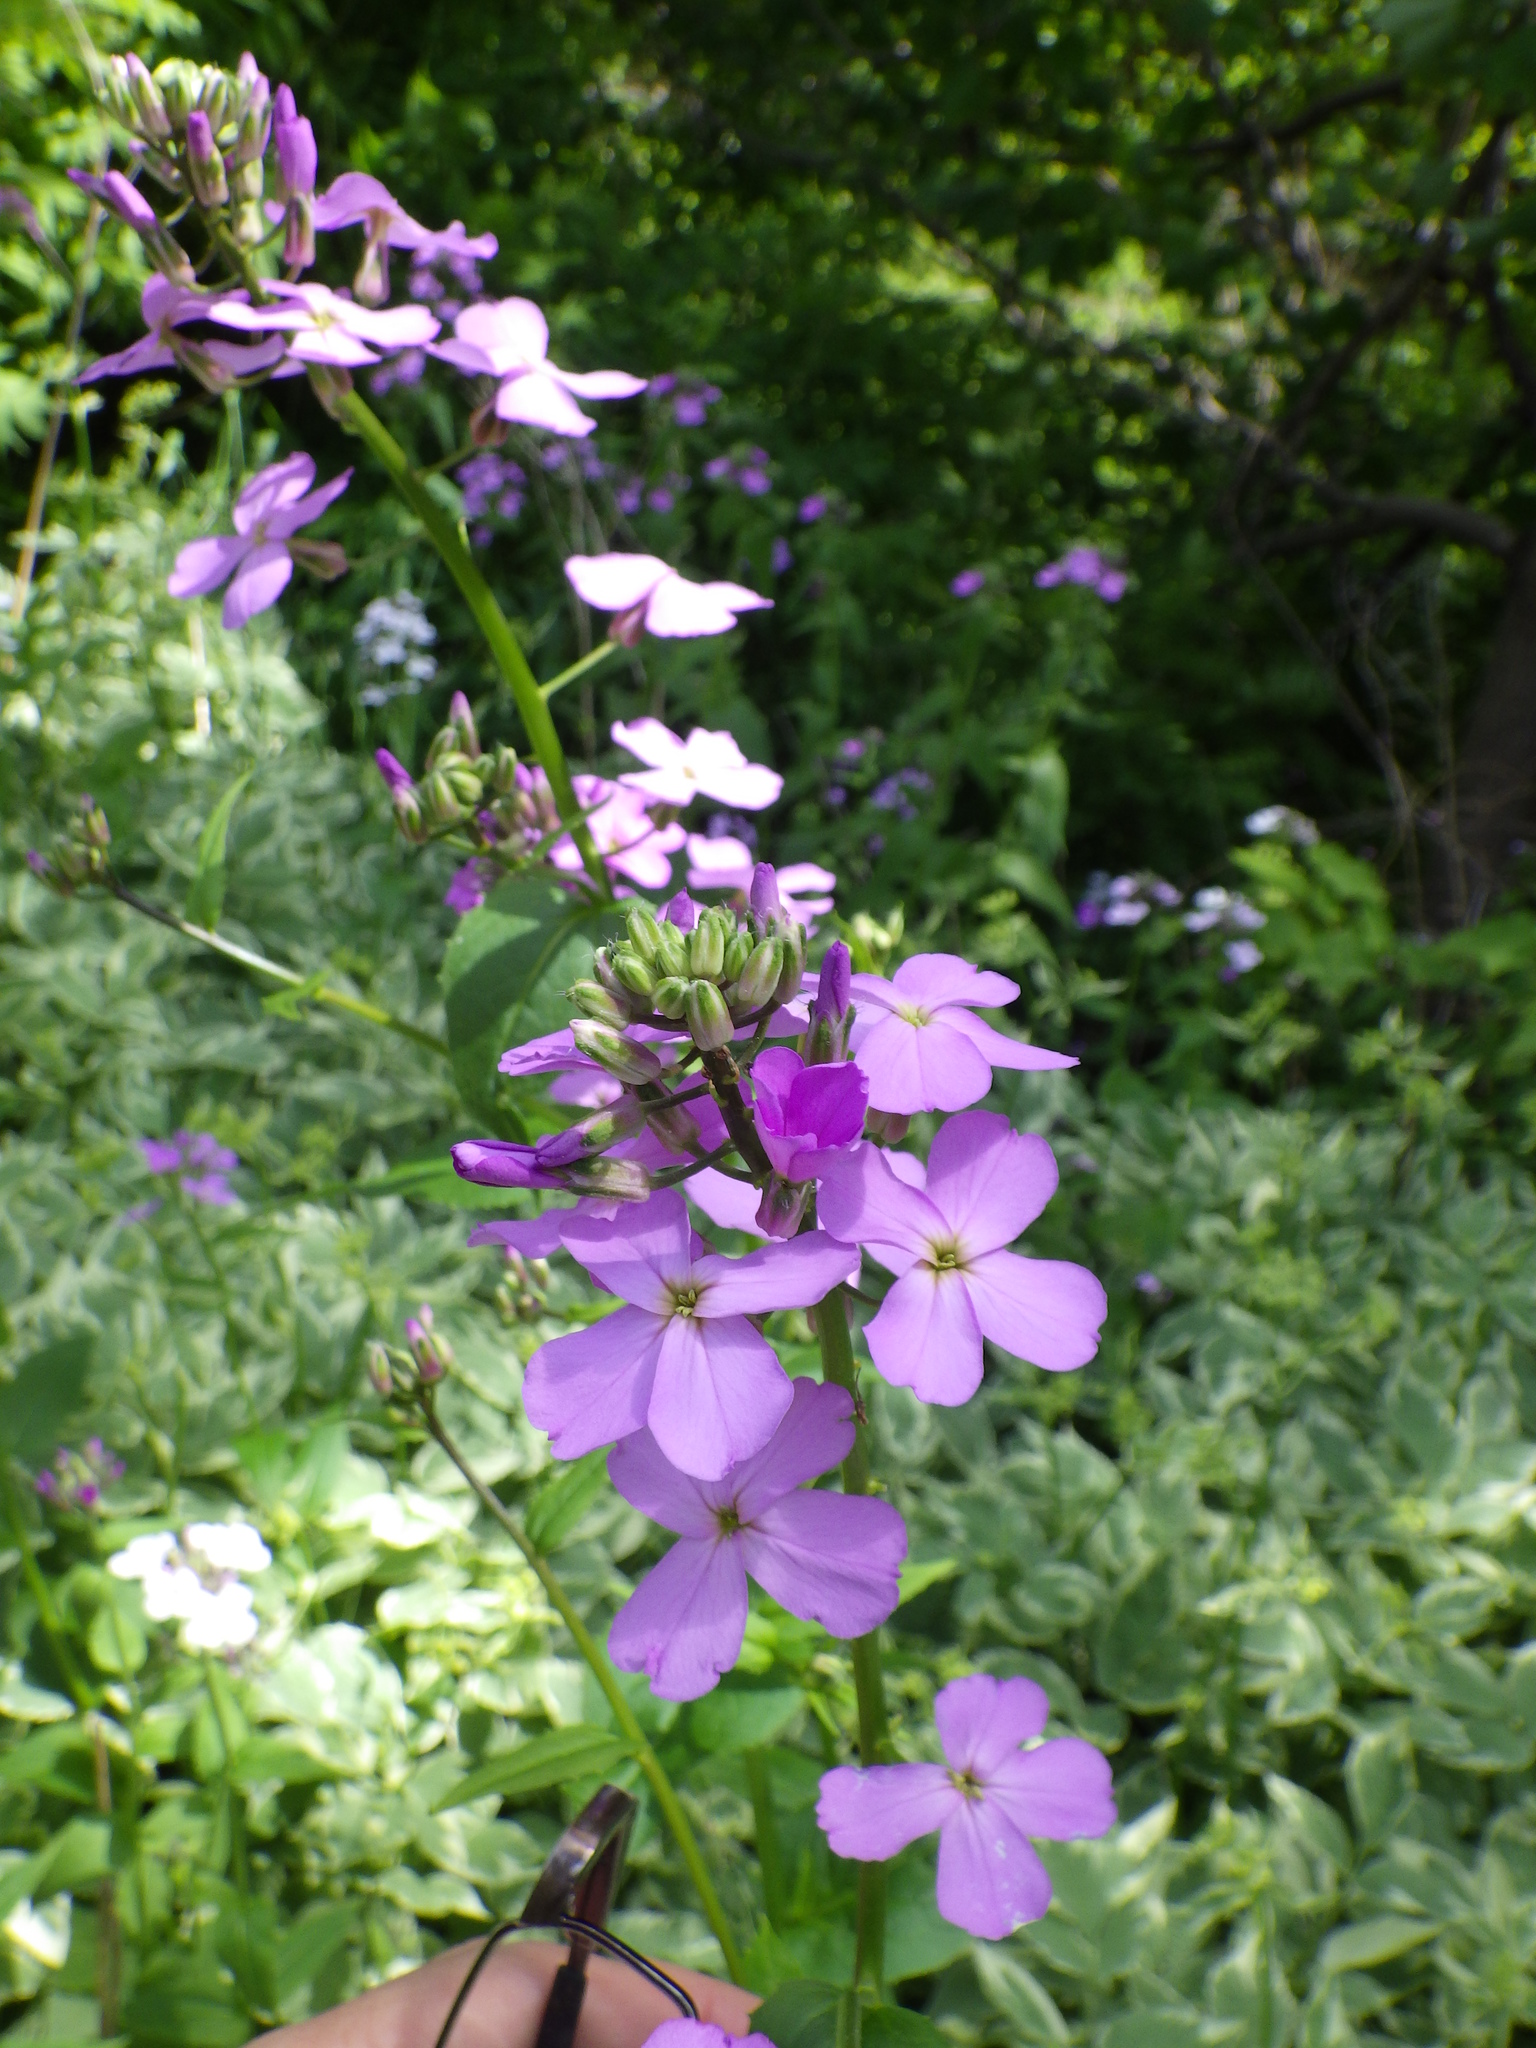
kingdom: Plantae
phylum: Tracheophyta
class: Magnoliopsida
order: Brassicales
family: Brassicaceae
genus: Hesperis
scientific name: Hesperis matronalis
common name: Dame's-violet
